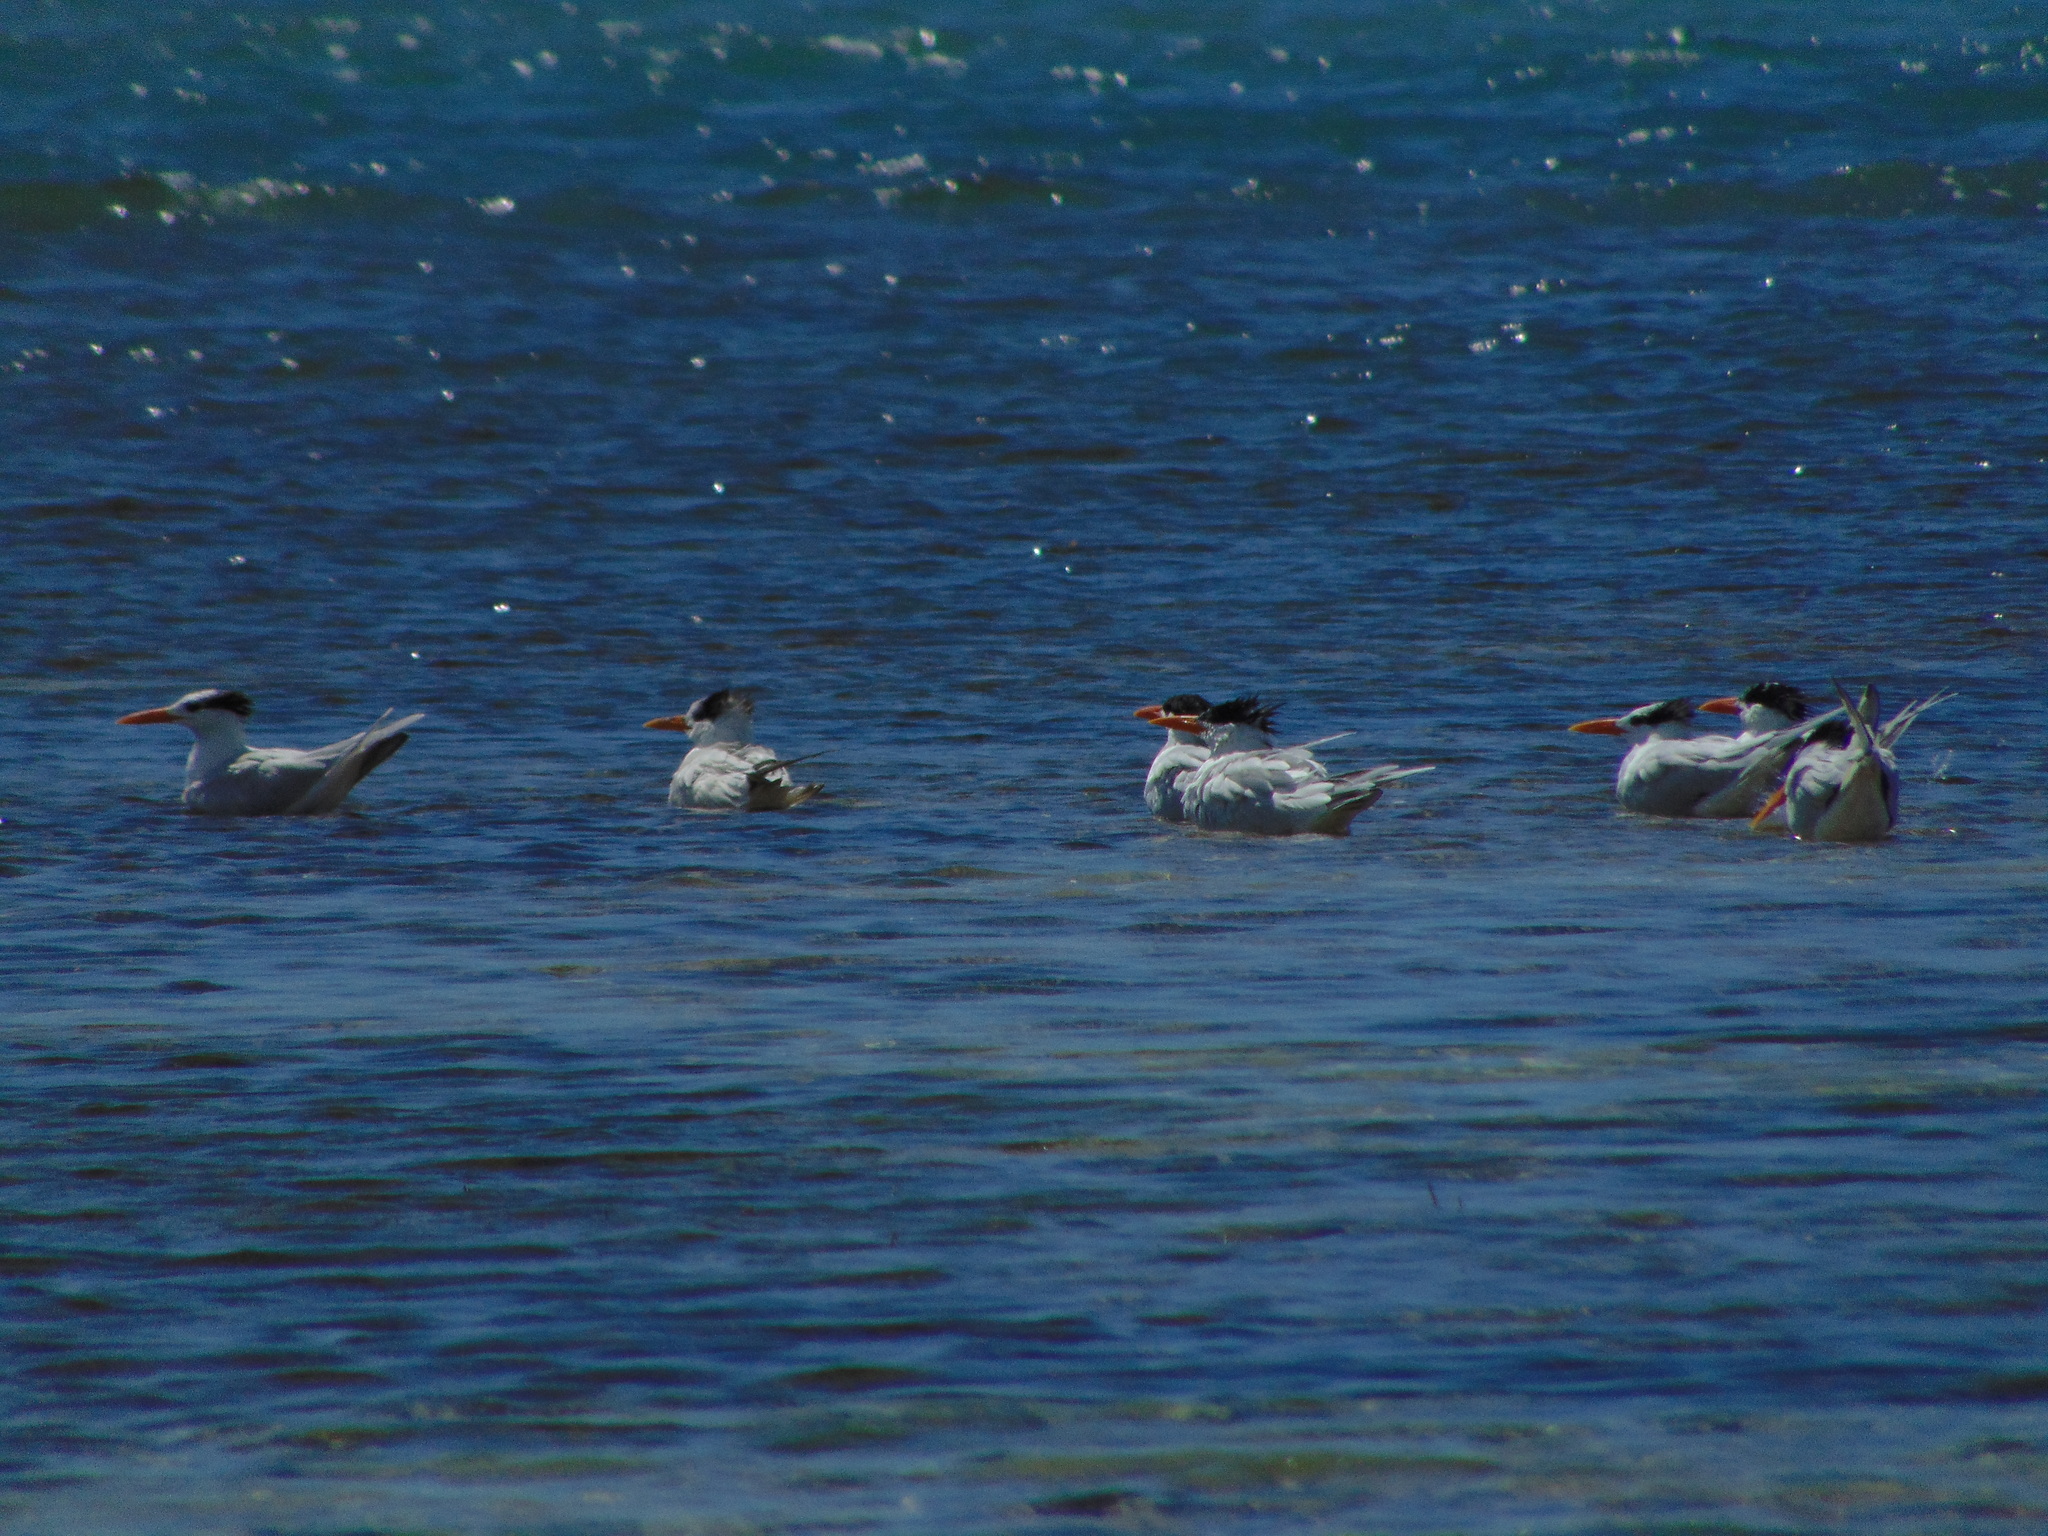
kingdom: Animalia
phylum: Chordata
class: Aves
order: Charadriiformes
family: Laridae
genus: Thalasseus
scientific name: Thalasseus maximus
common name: Royal tern
